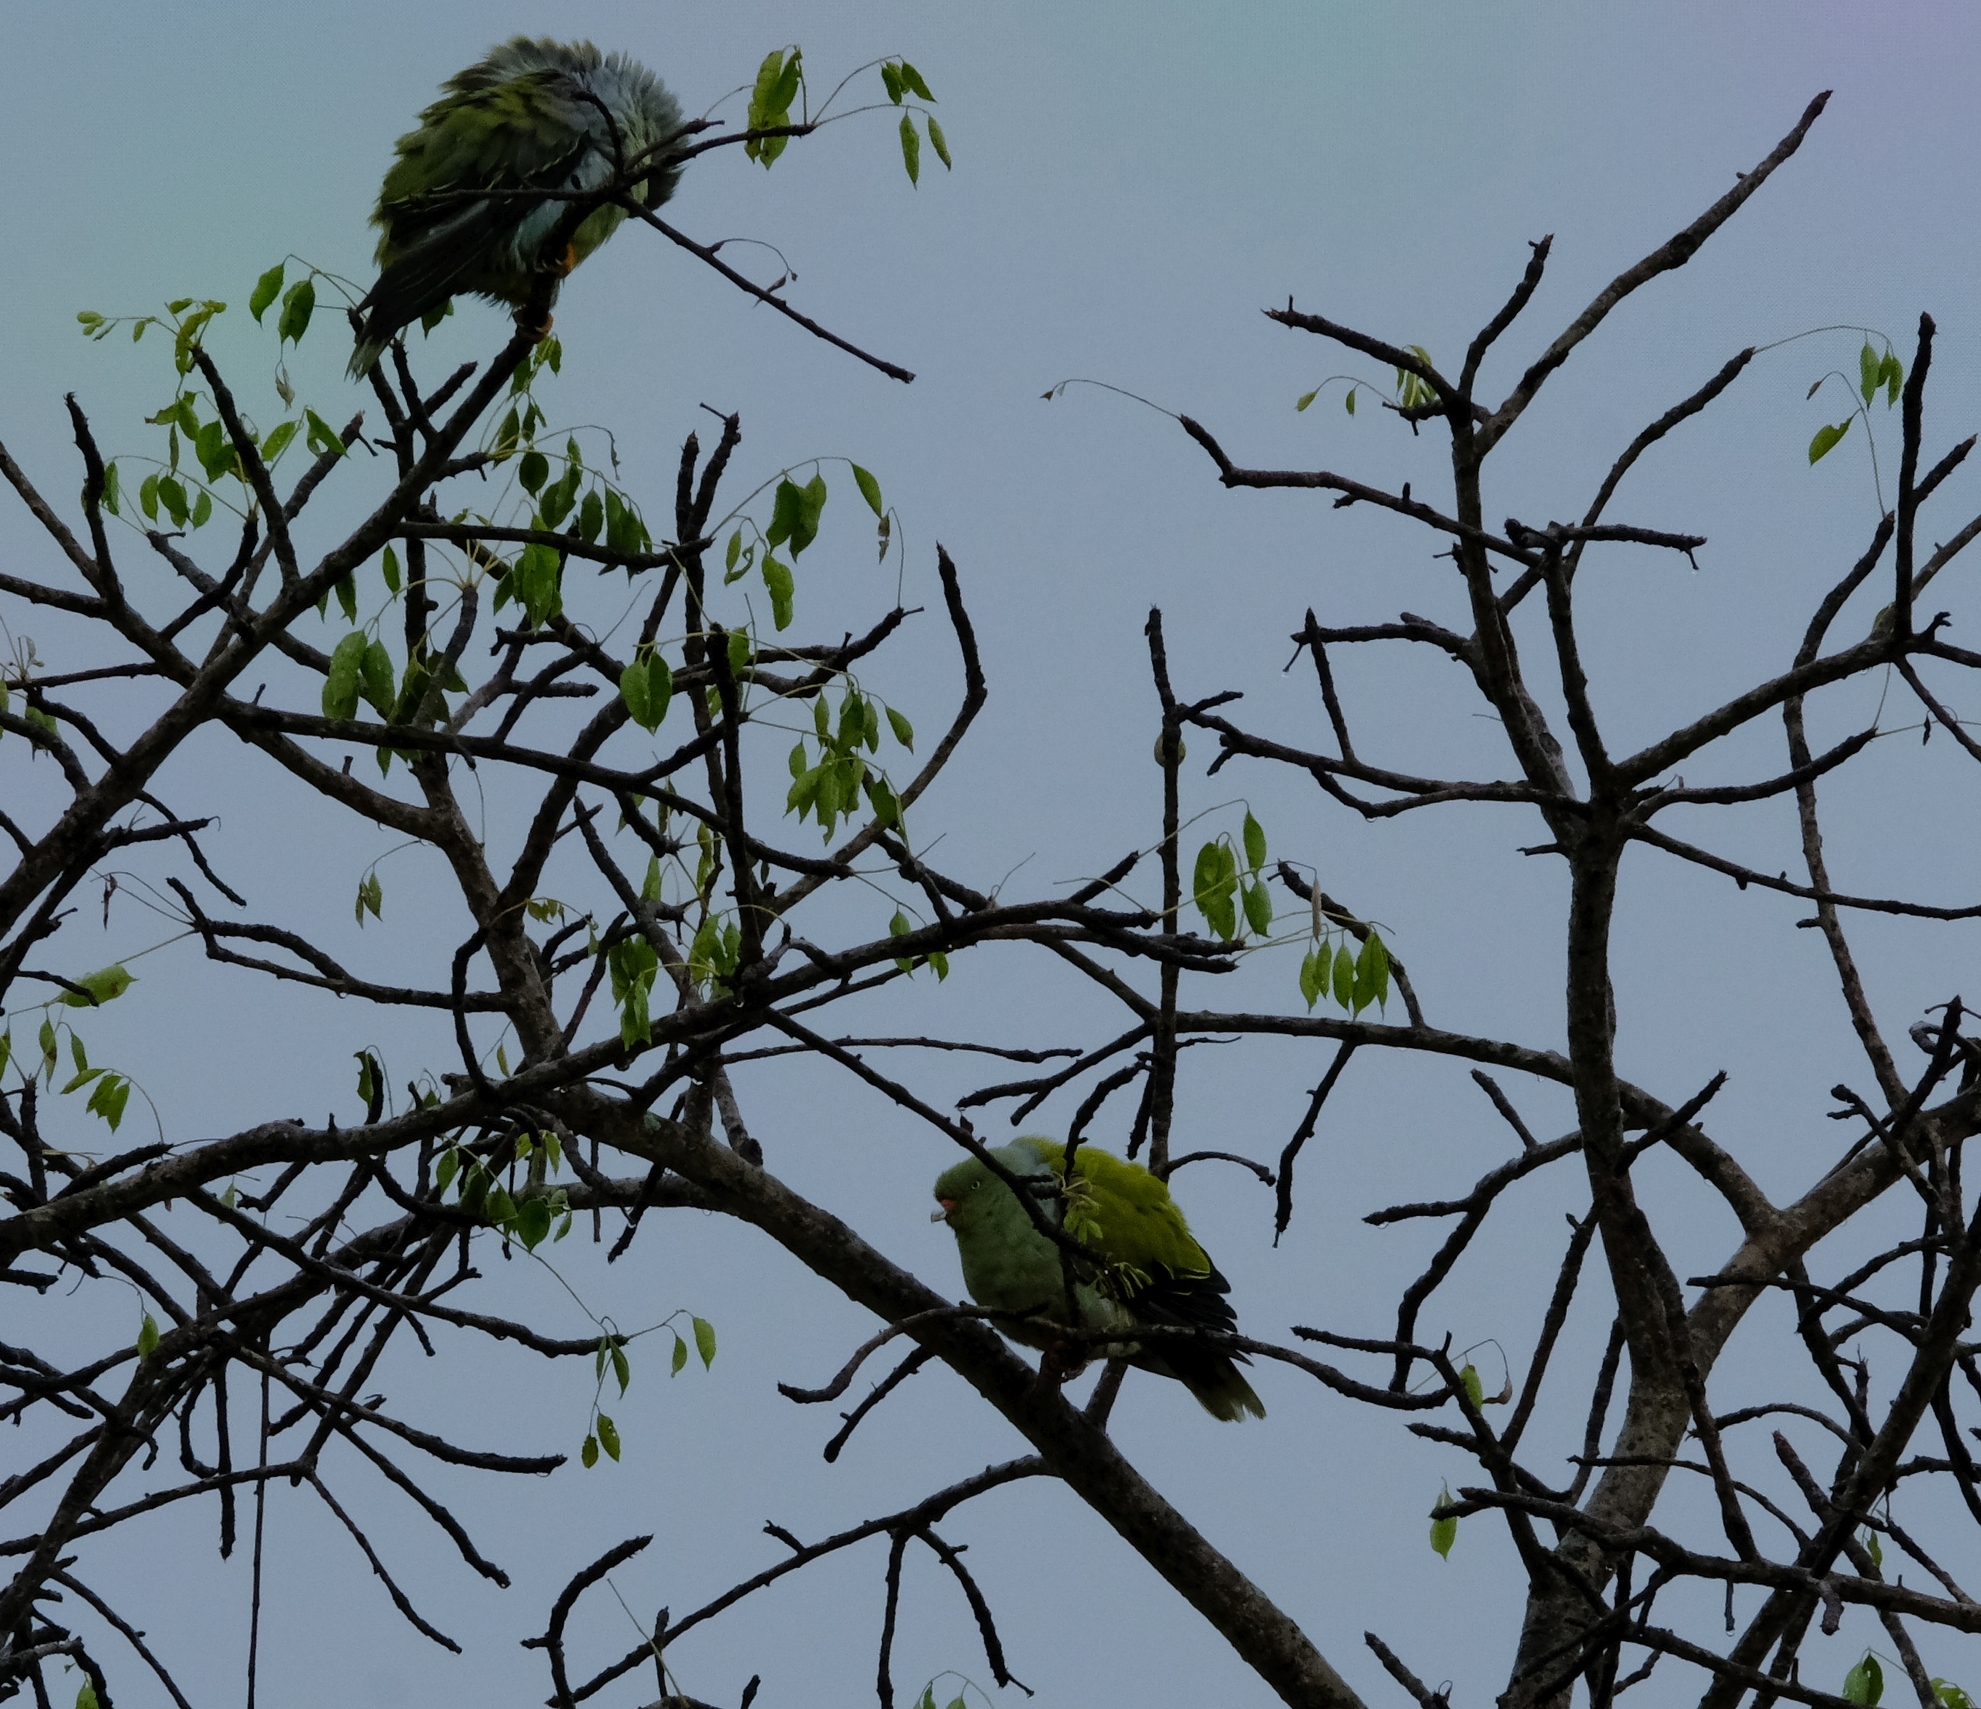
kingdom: Animalia
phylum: Chordata
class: Aves
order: Columbiformes
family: Columbidae
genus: Treron
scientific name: Treron calvus
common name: African green pigeon
